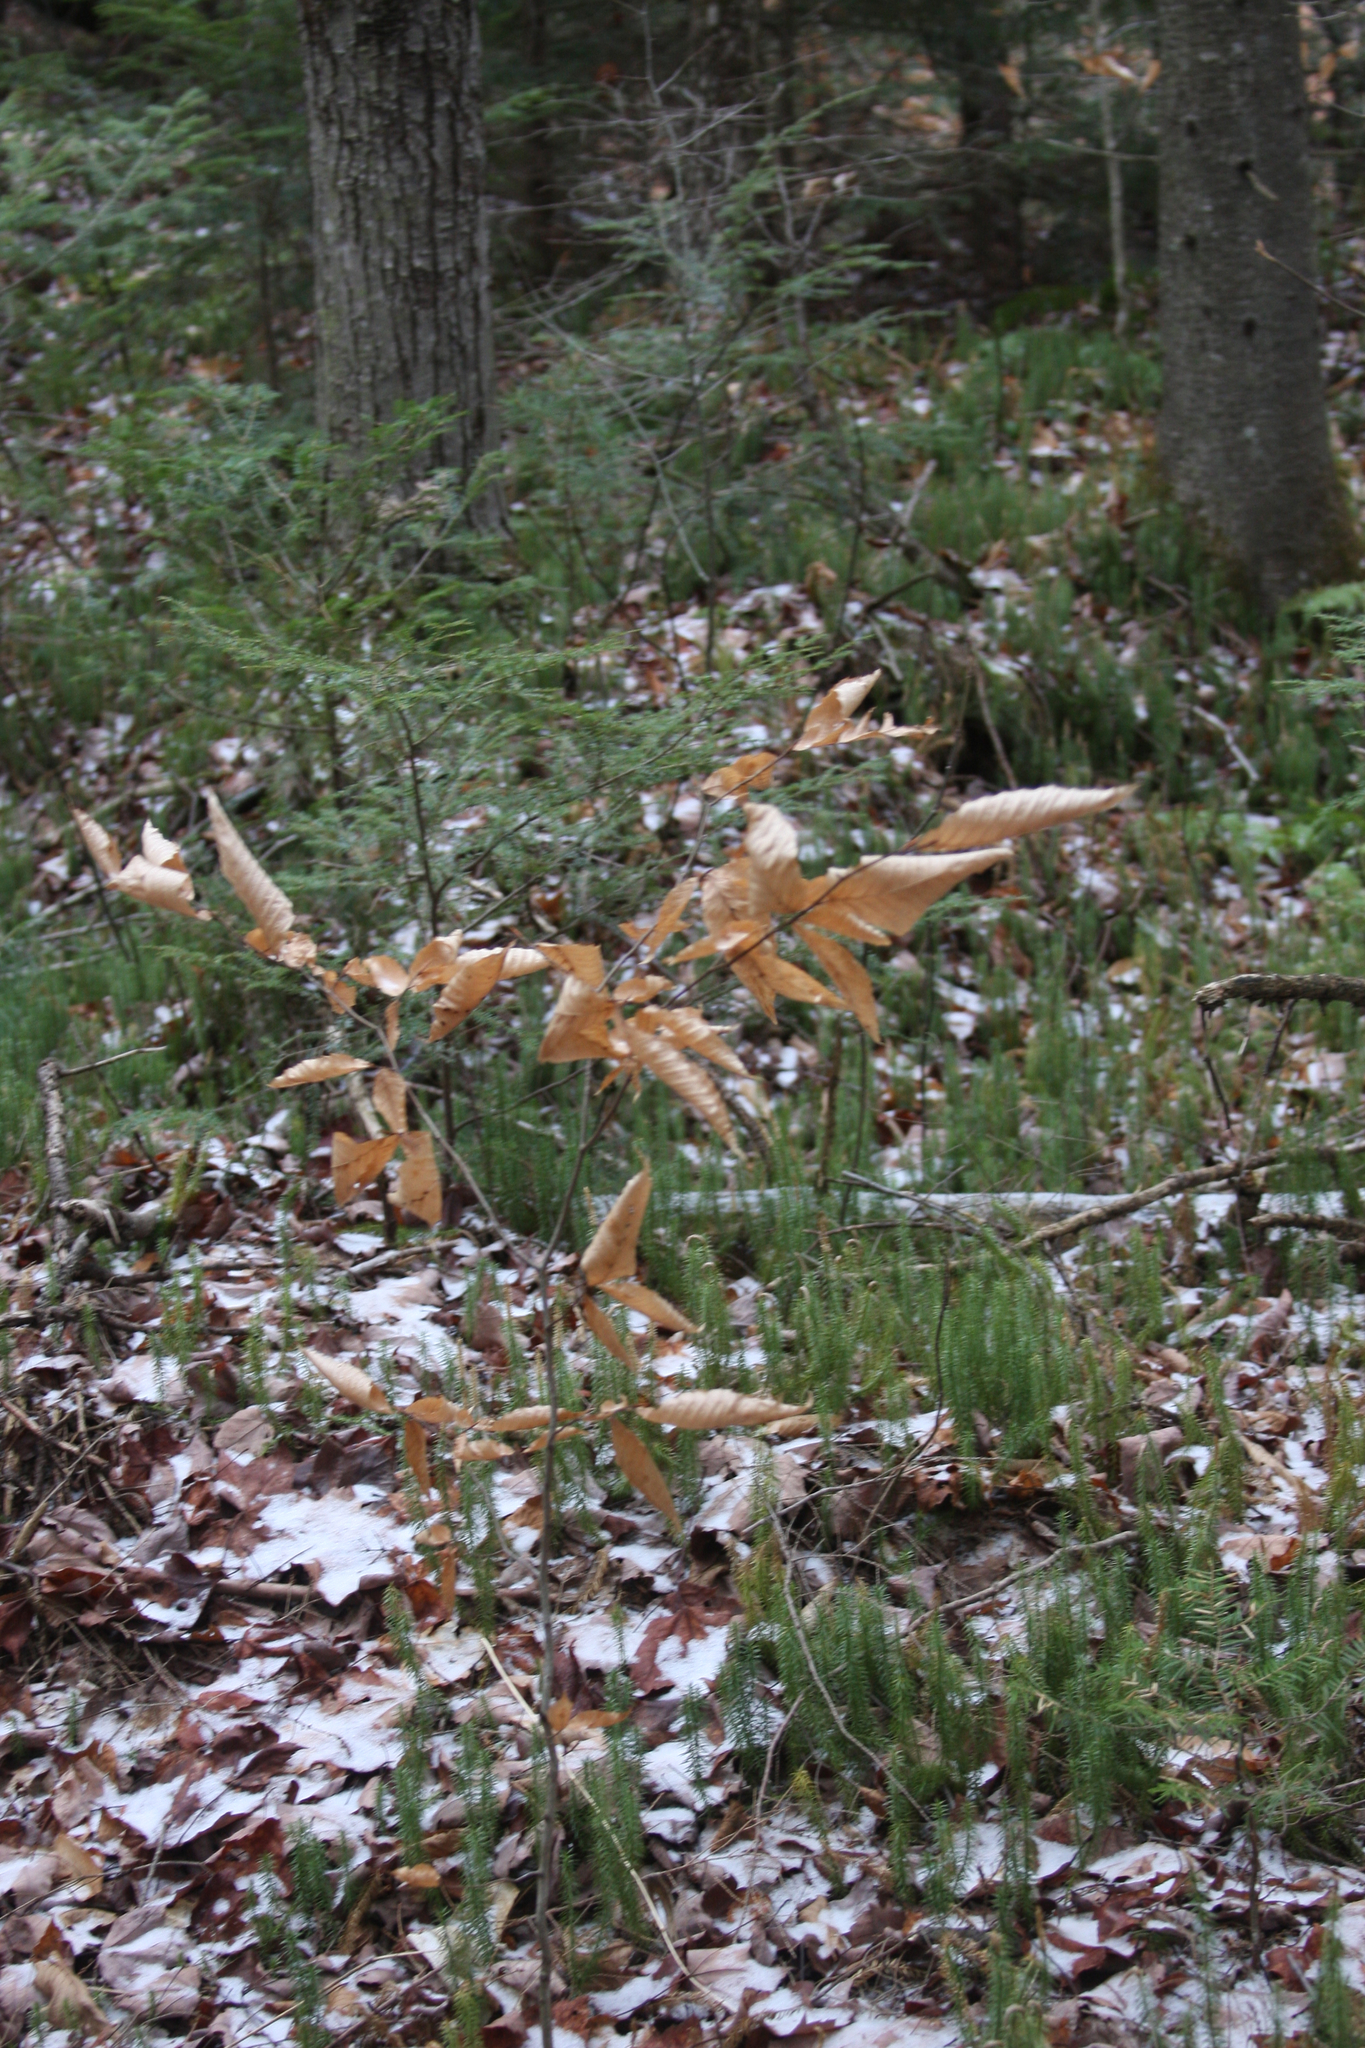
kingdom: Plantae
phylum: Tracheophyta
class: Magnoliopsida
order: Fagales
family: Fagaceae
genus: Fagus
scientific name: Fagus grandifolia
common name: American beech
